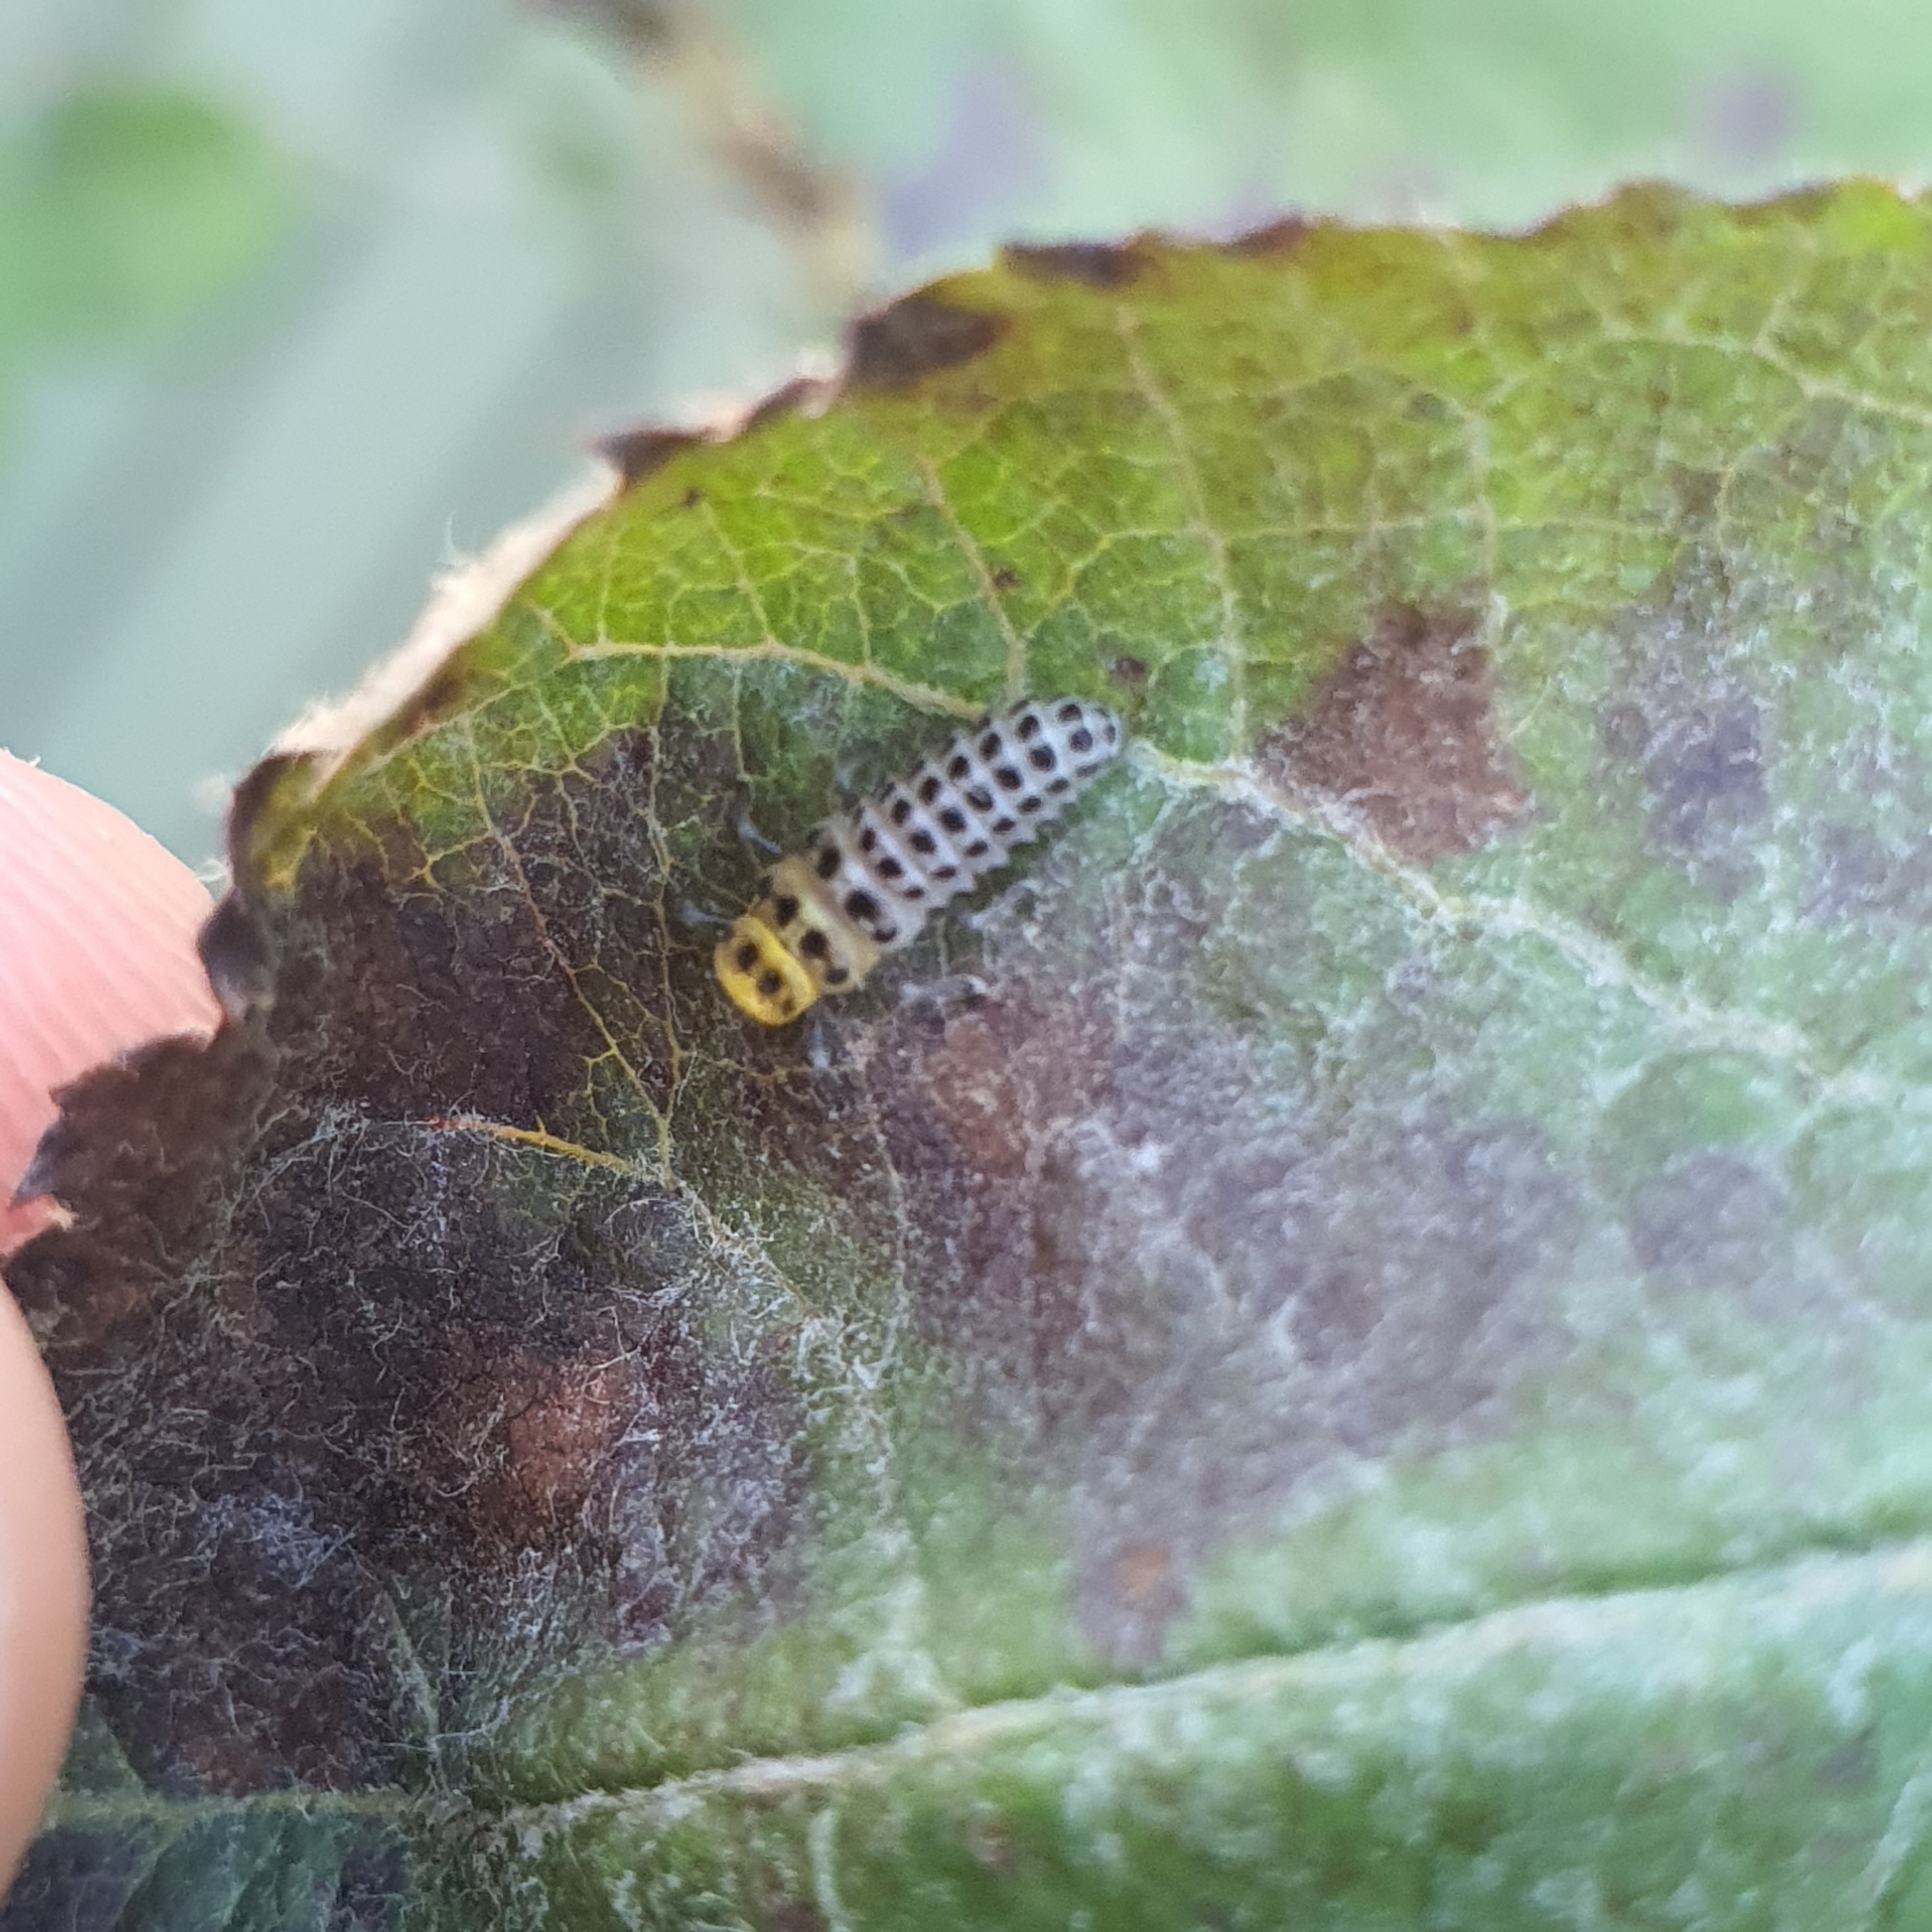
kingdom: Animalia
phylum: Arthropoda
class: Insecta
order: Coleoptera
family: Coccinellidae
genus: Illeis
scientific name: Illeis galbula
